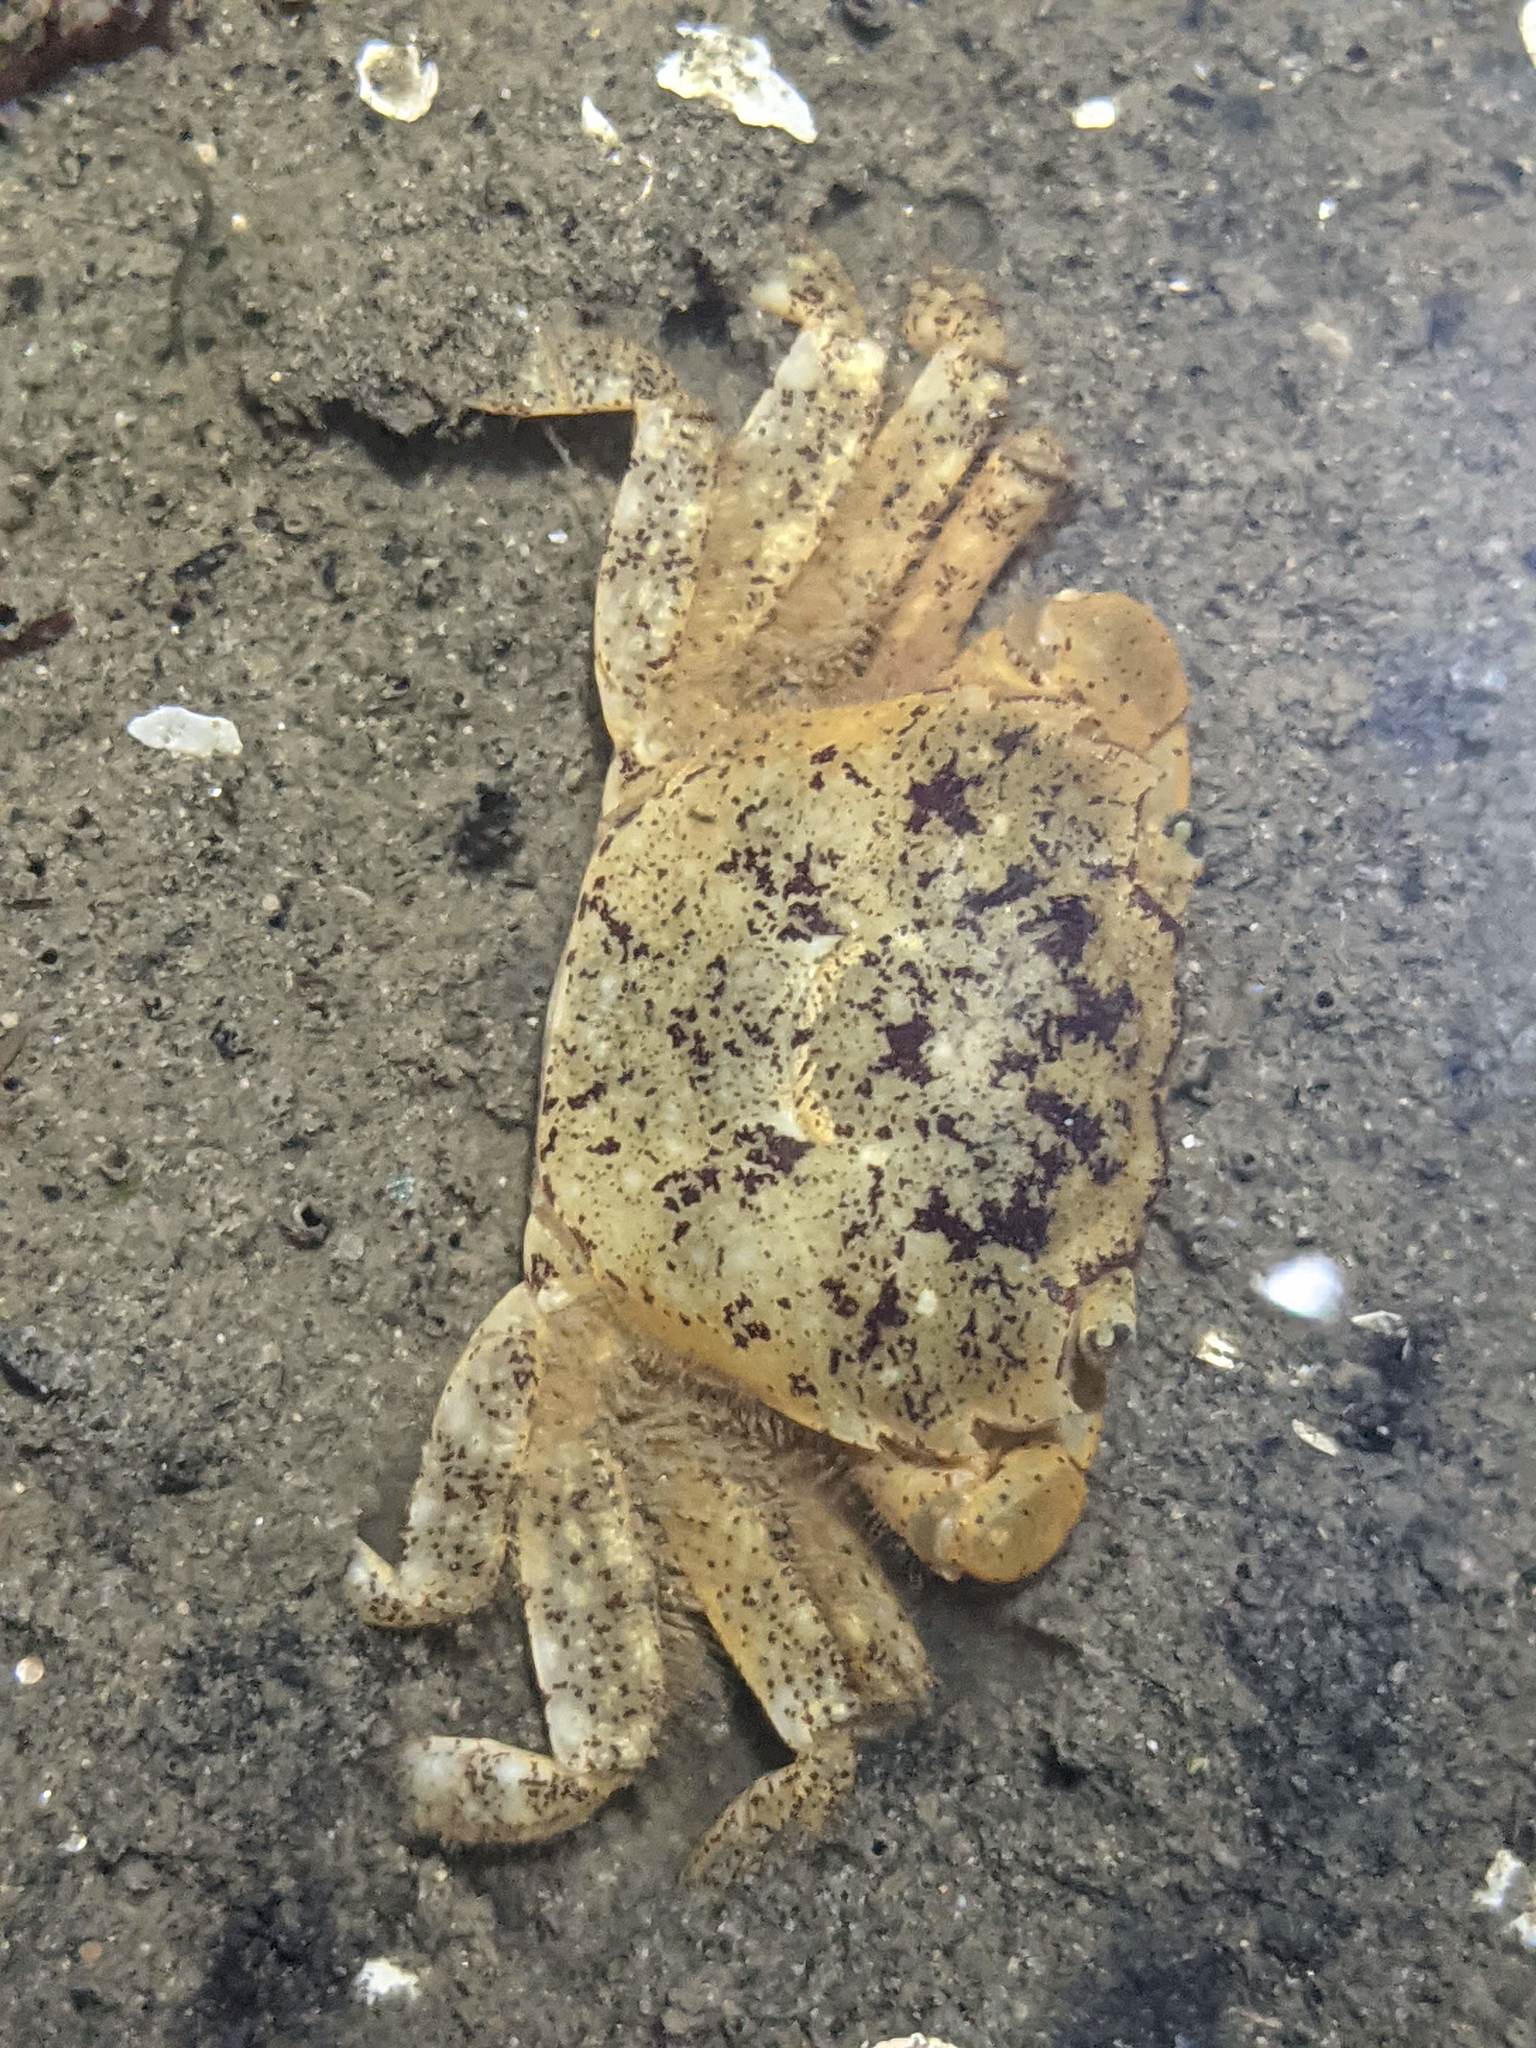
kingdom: Animalia
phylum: Arthropoda
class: Malacostraca
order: Decapoda
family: Varunidae
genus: Hemigrapsus
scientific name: Hemigrapsus oregonensis
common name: Yellow shore crab
